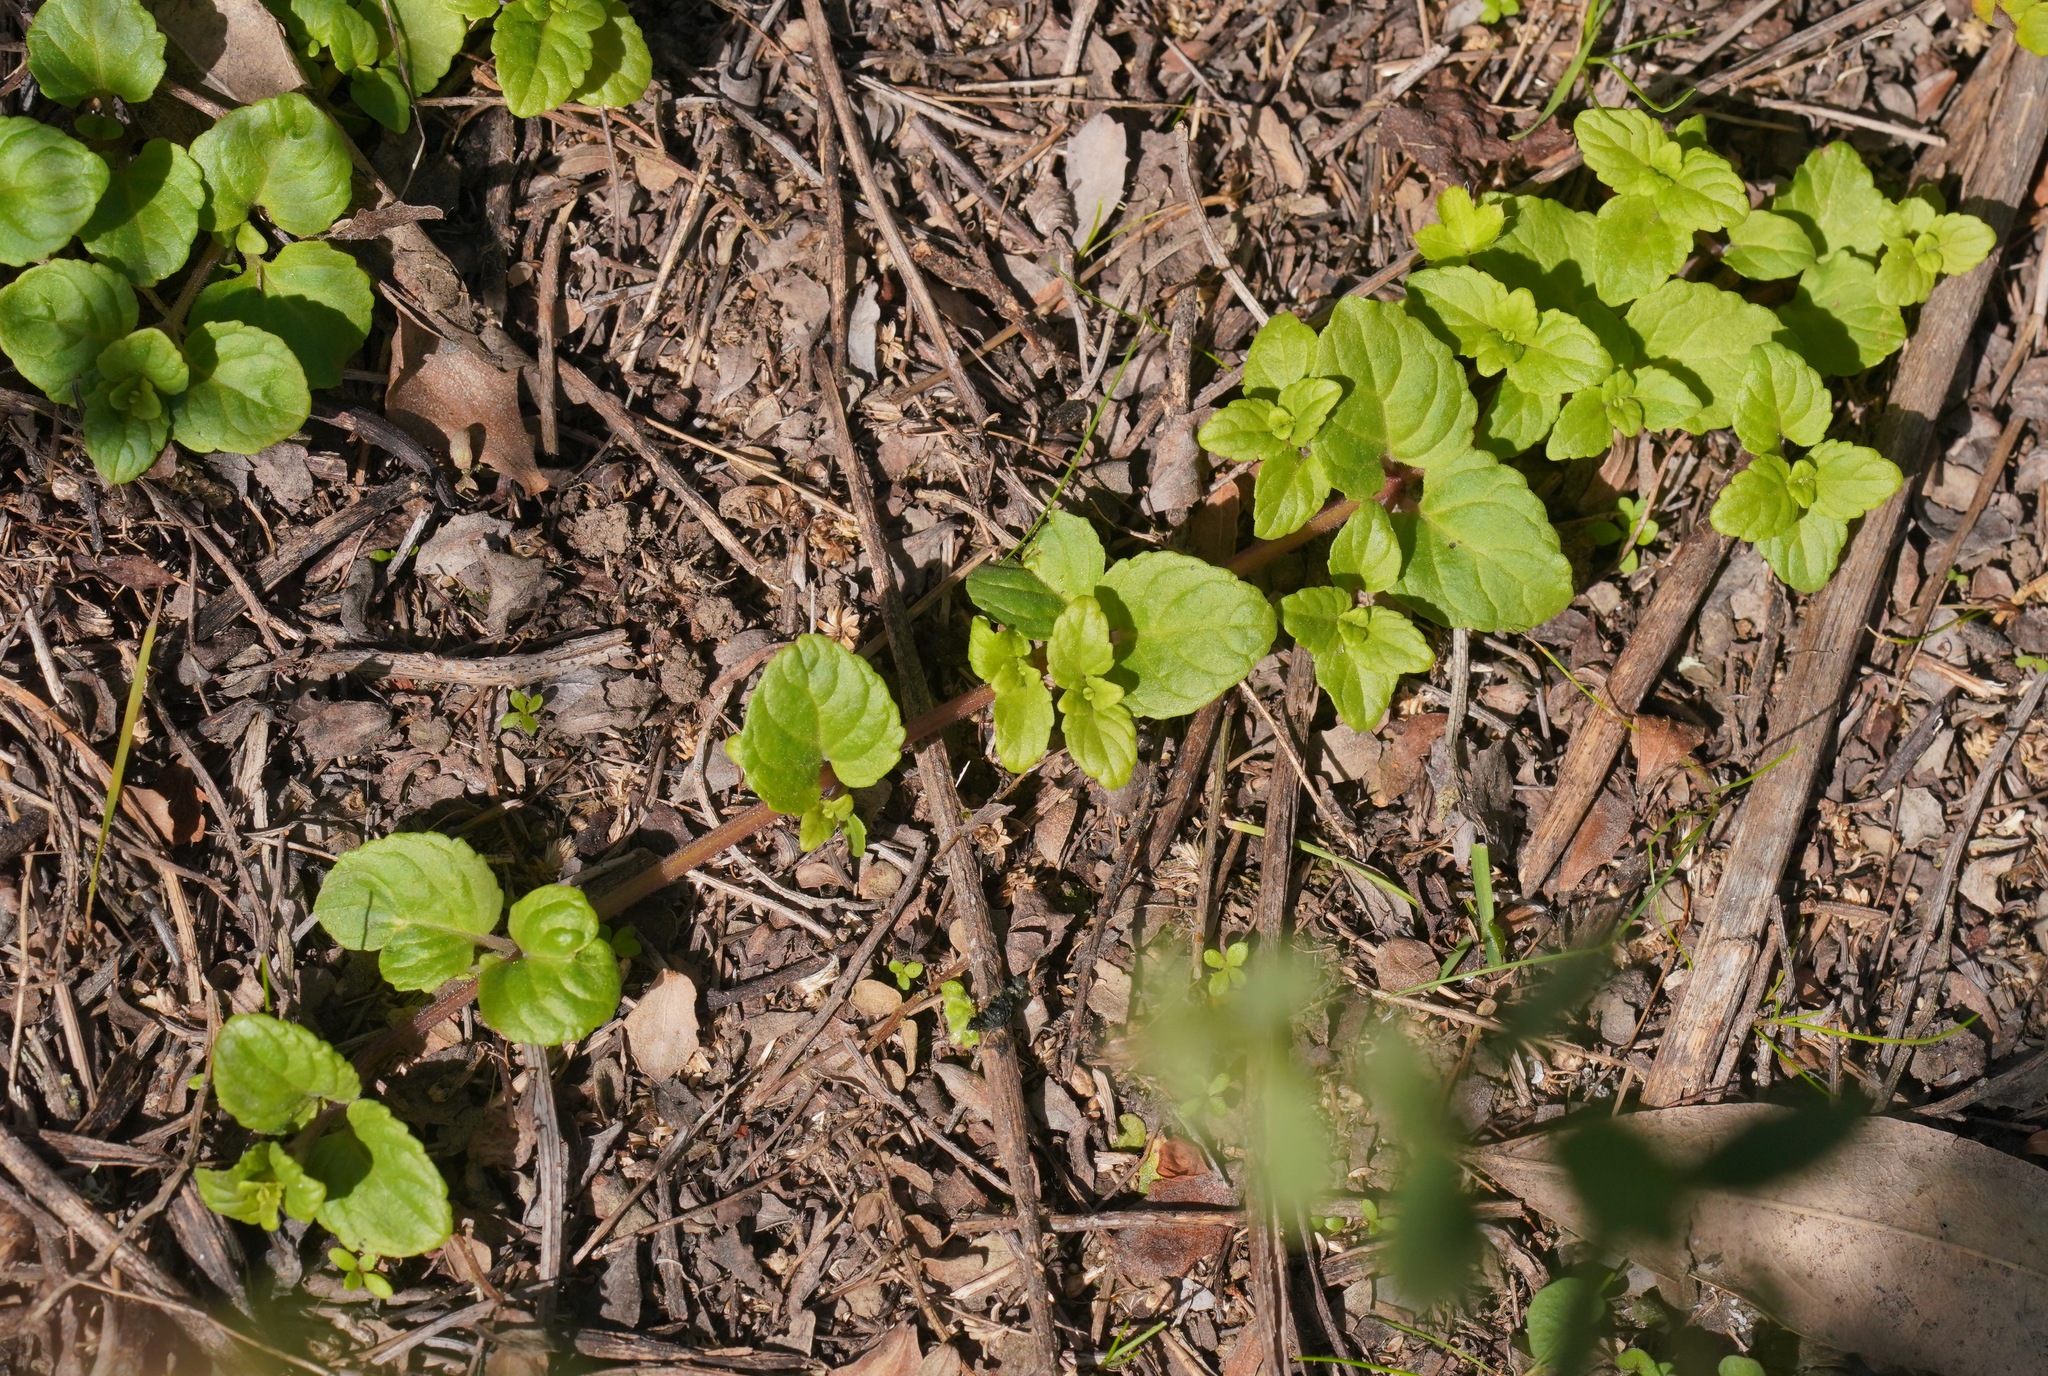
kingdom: Plantae
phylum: Tracheophyta
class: Magnoliopsida
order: Lamiales
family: Lamiaceae
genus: Micromeria
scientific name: Micromeria douglasii
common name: Yerba buena
